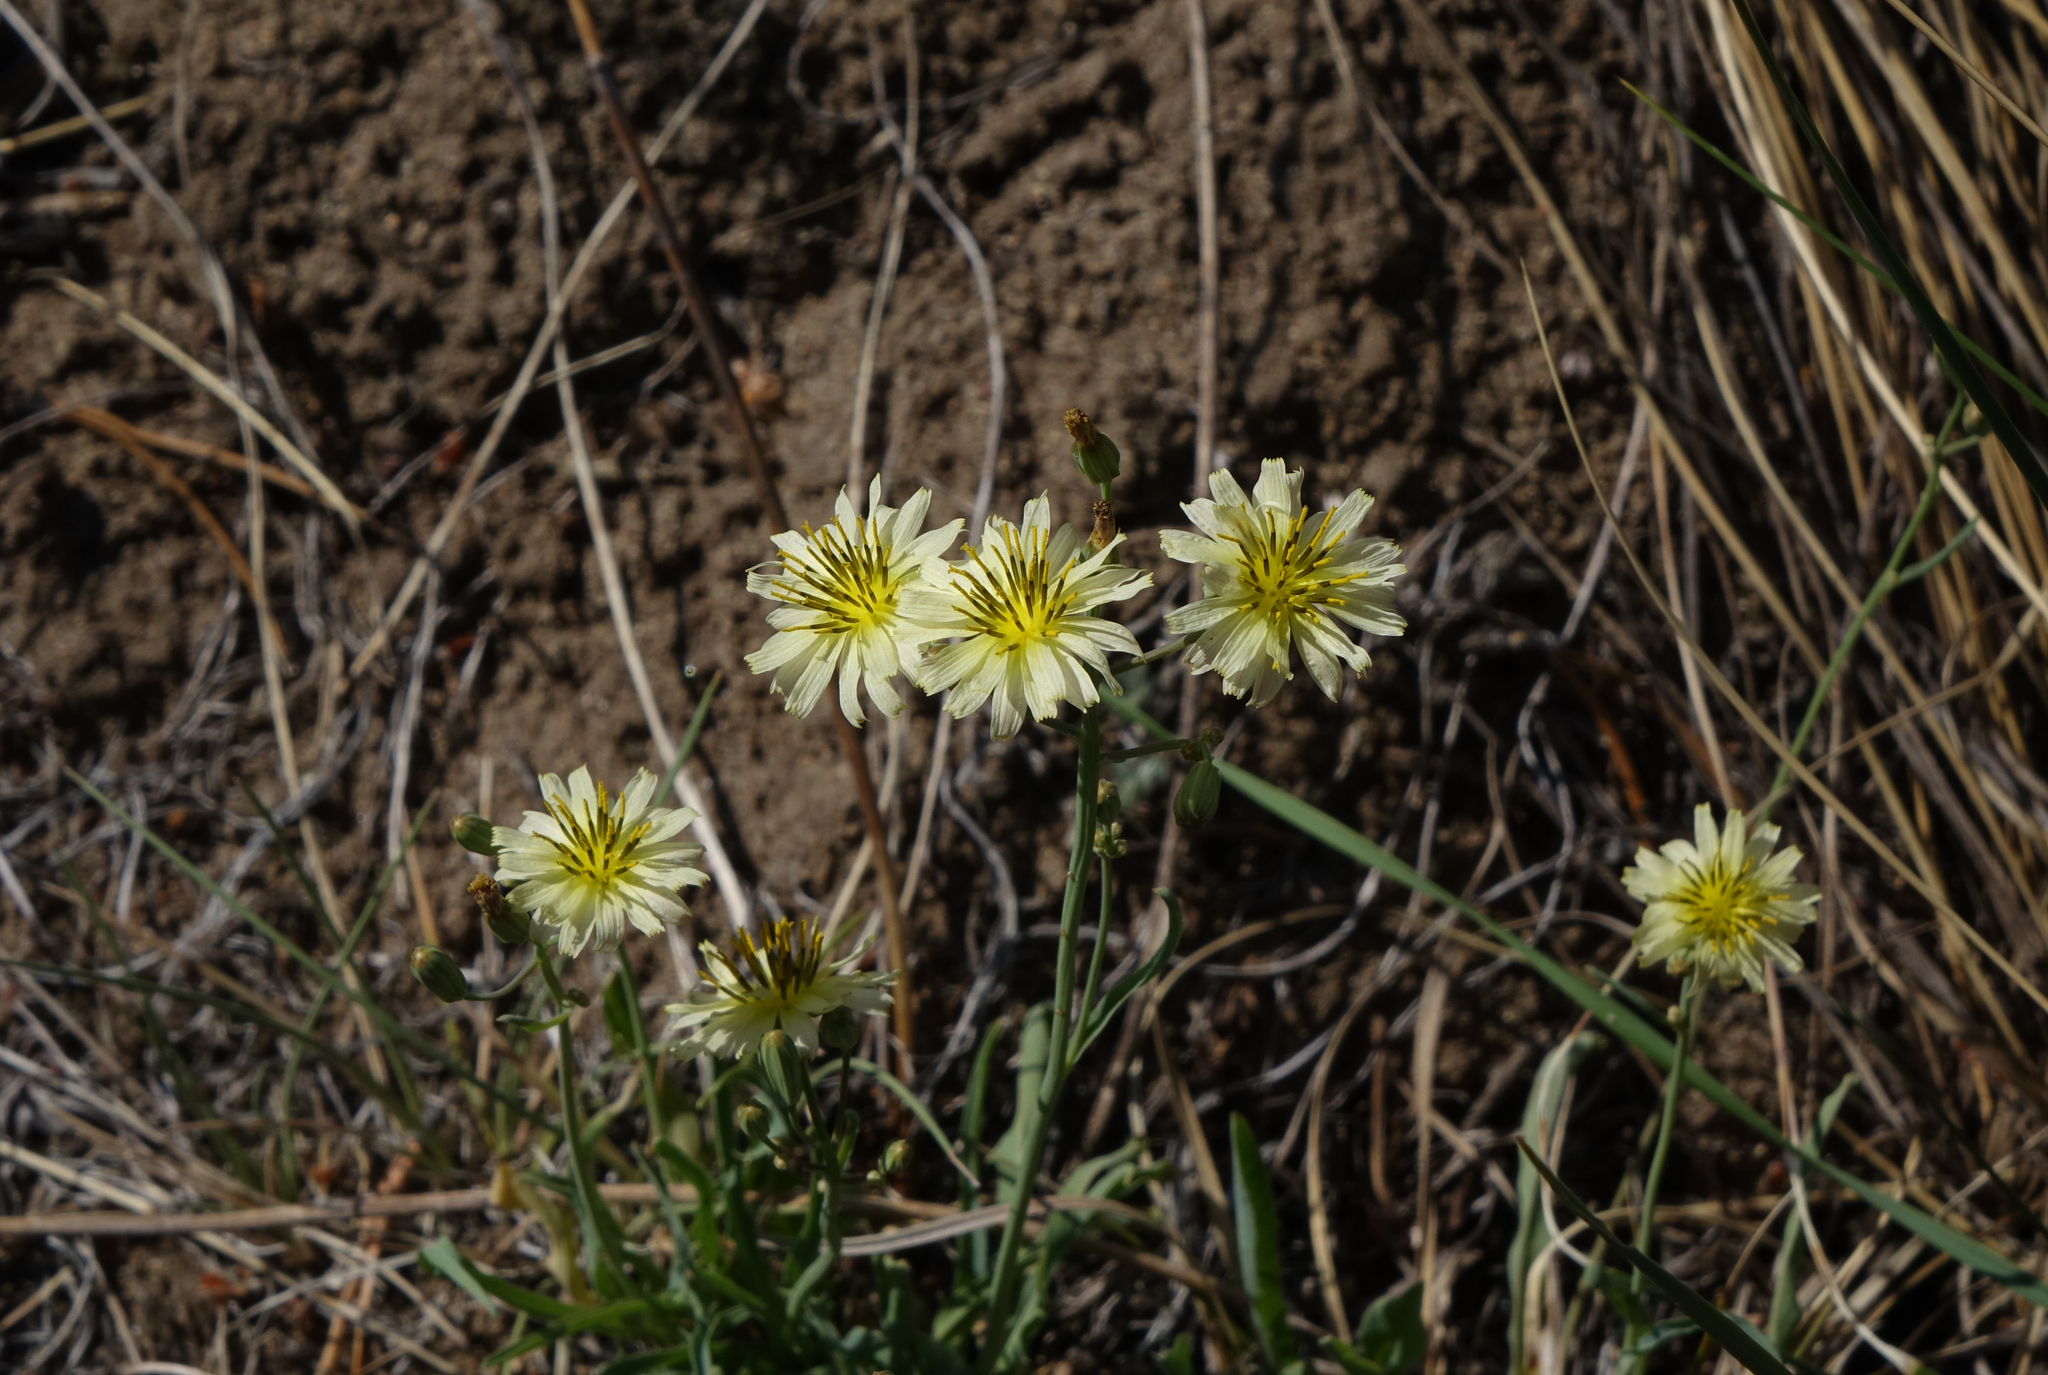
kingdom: Plantae
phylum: Tracheophyta
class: Magnoliopsida
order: Asterales
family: Asteraceae
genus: Ixeris
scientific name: Ixeris chinensis
